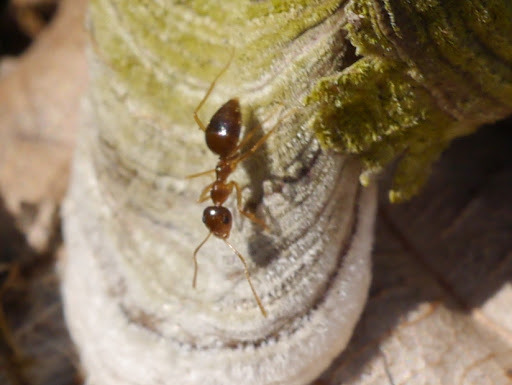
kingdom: Animalia
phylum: Arthropoda
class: Insecta
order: Hymenoptera
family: Formicidae
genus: Prenolepis
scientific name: Prenolepis imparis
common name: Small honey ant
